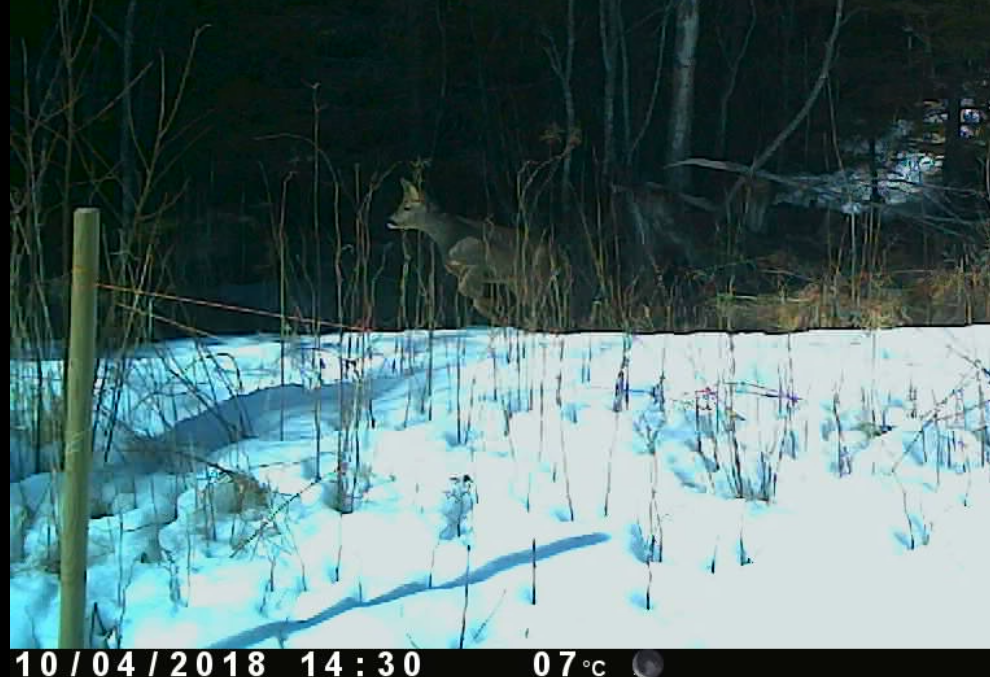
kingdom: Animalia
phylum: Chordata
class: Mammalia
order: Artiodactyla
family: Cervidae
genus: Capreolus
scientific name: Capreolus capreolus
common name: Western roe deer
